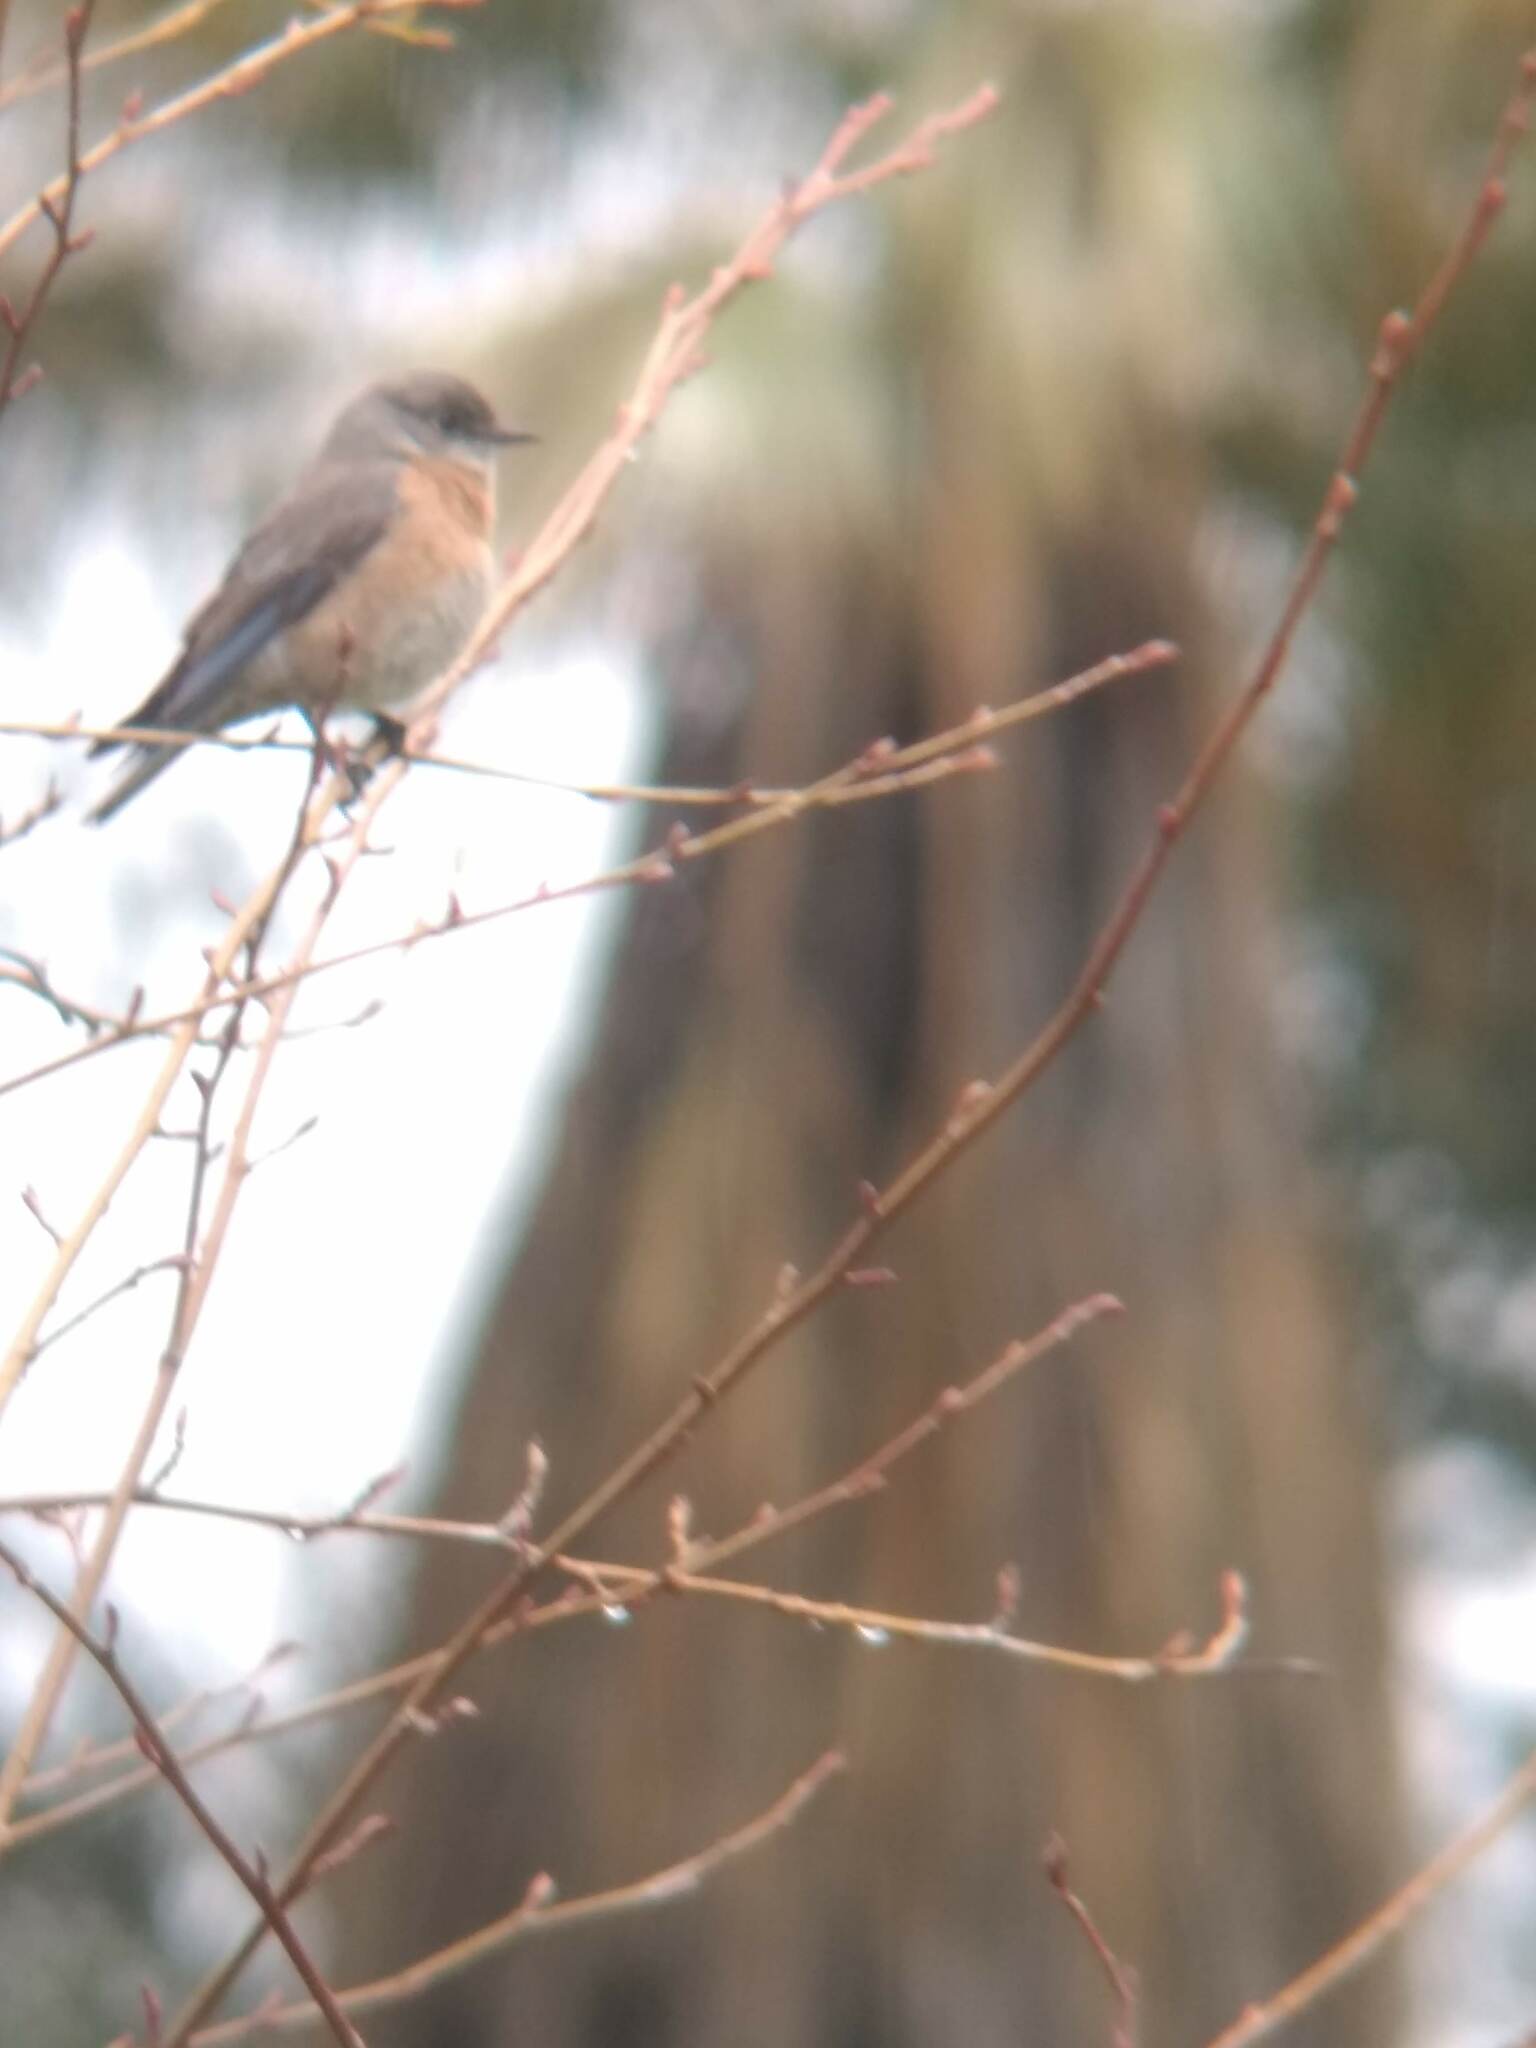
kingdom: Animalia
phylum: Chordata
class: Aves
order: Passeriformes
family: Turdidae
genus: Sialia
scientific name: Sialia mexicana
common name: Western bluebird
